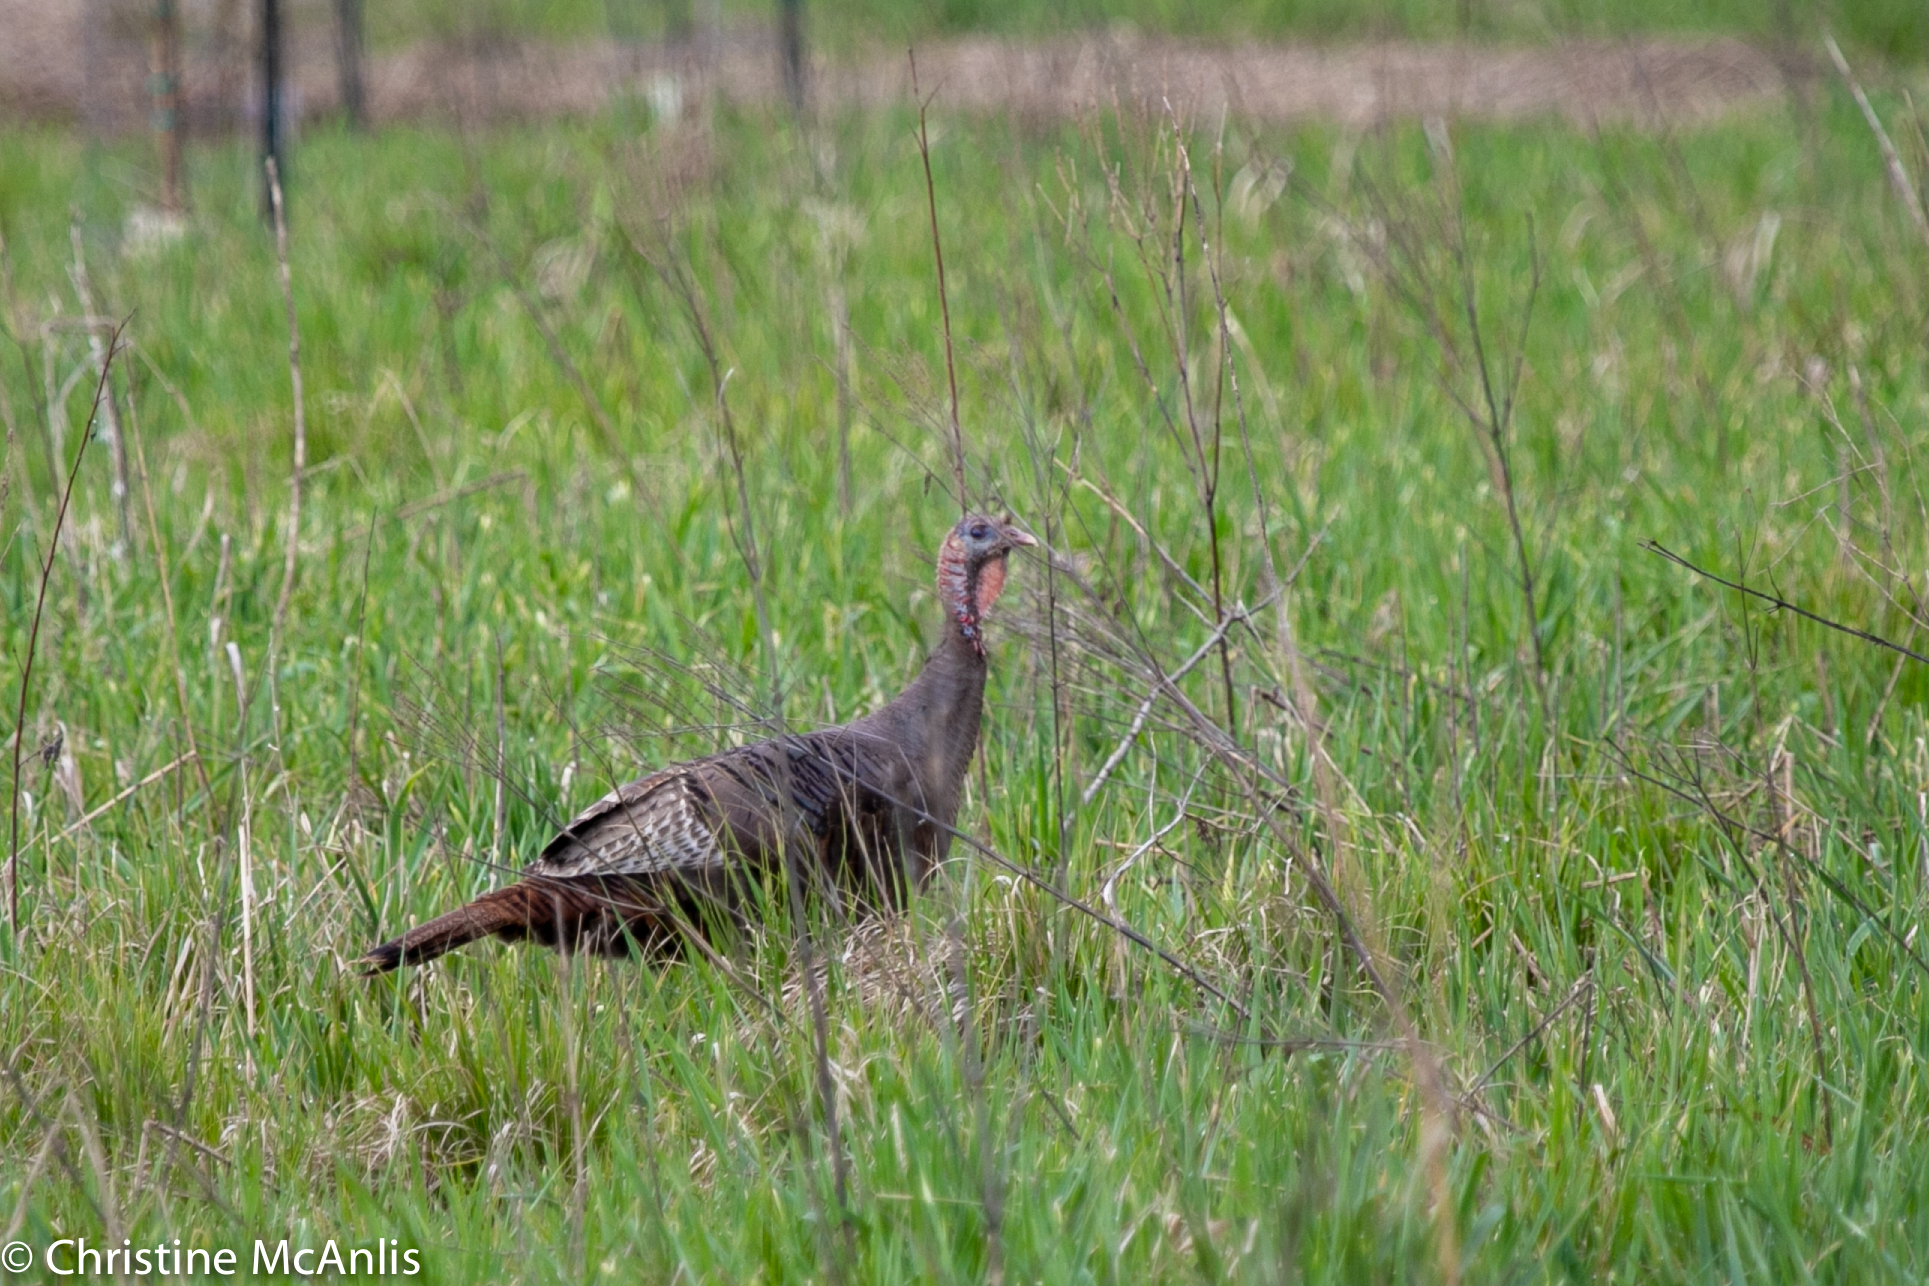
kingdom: Animalia
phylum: Chordata
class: Aves
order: Galliformes
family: Phasianidae
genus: Meleagris
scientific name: Meleagris gallopavo
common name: Wild turkey
